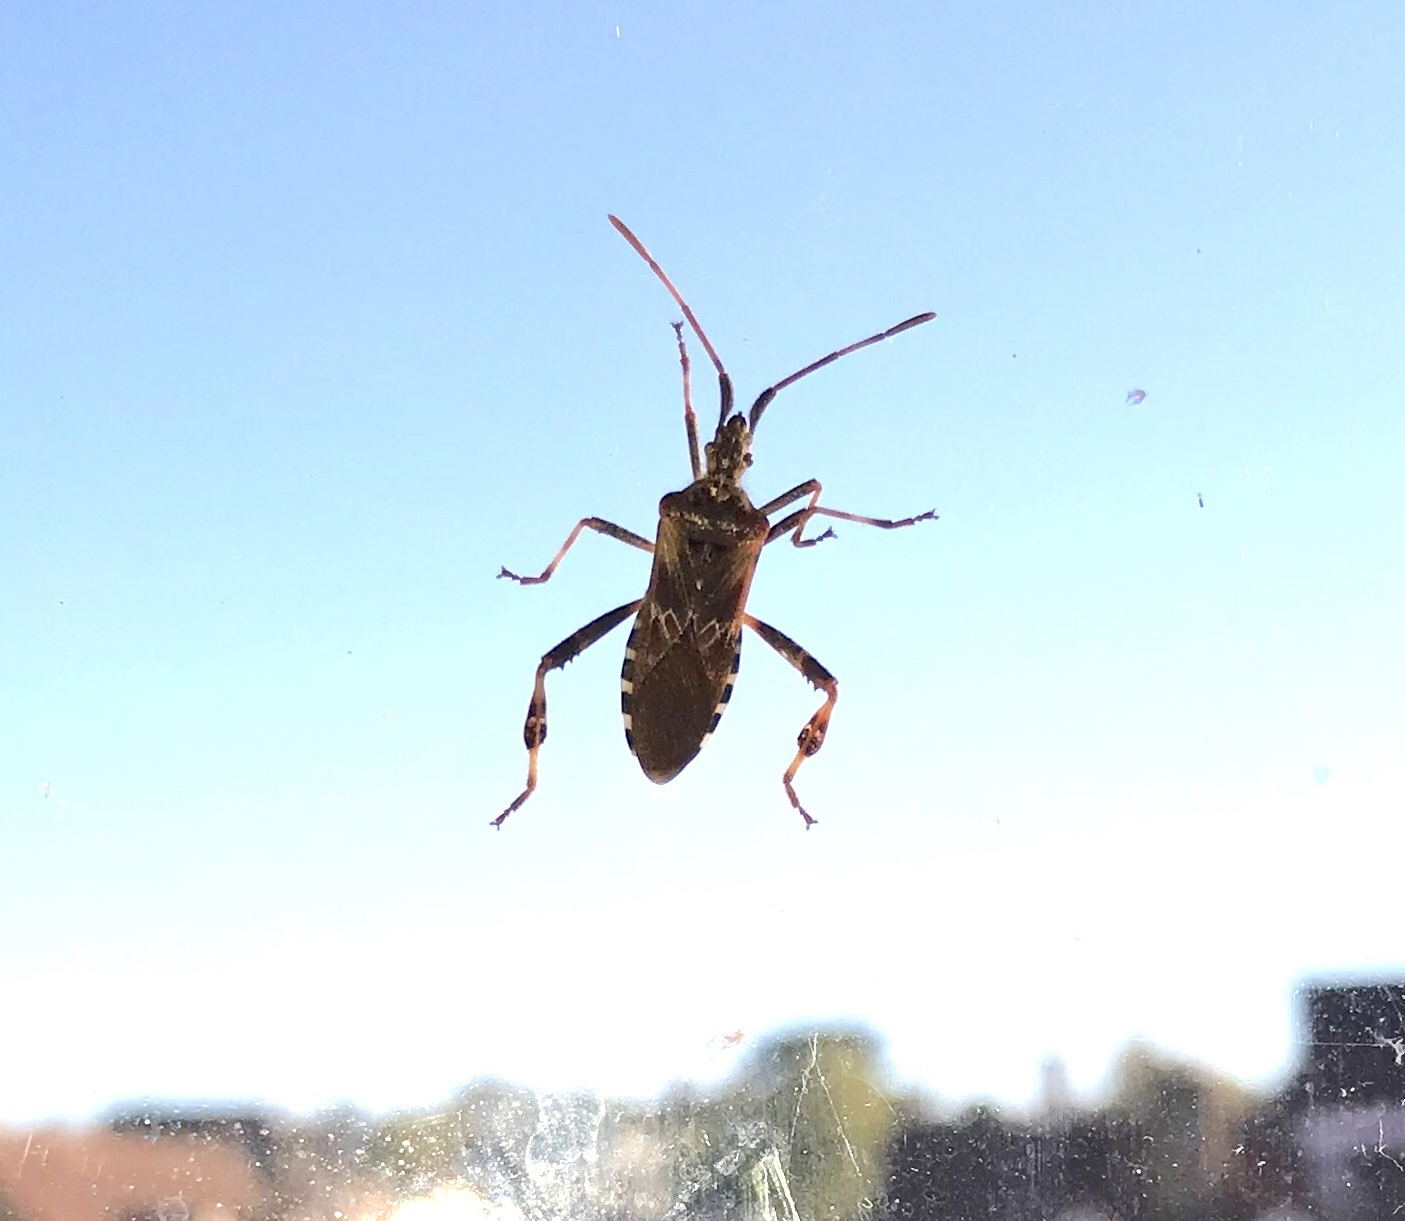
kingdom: Animalia
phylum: Arthropoda
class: Insecta
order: Hemiptera
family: Coreidae
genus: Leptoglossus
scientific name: Leptoglossus occidentalis
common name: Western conifer-seed bug
